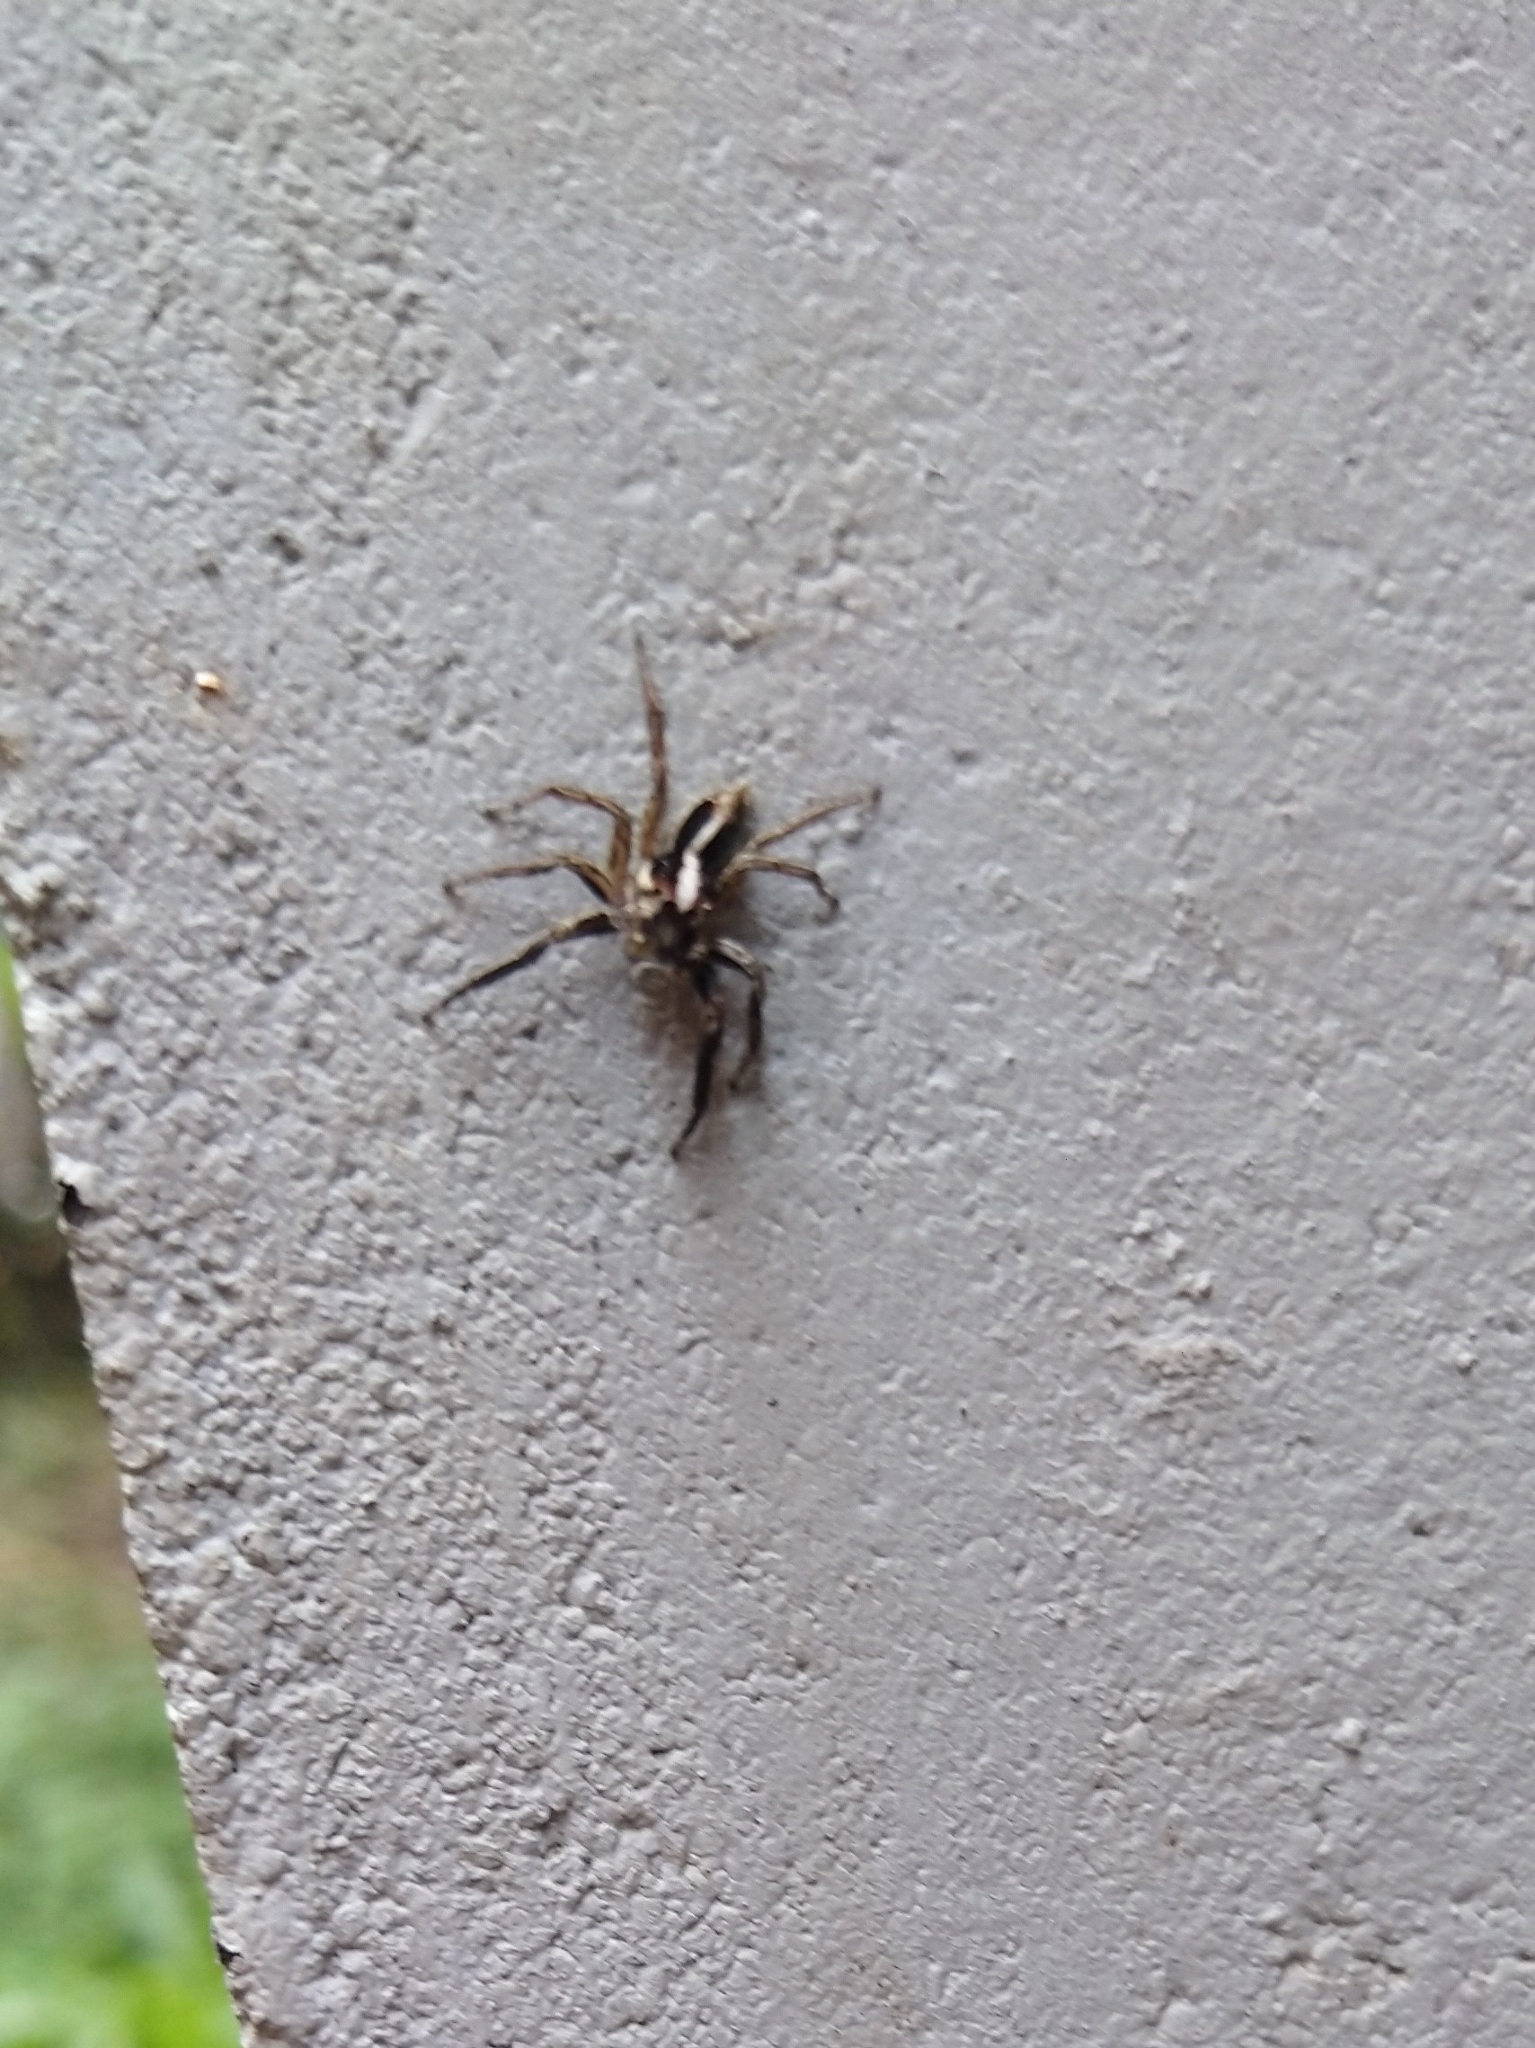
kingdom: Animalia
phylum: Arthropoda
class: Arachnida
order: Araneae
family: Salticidae
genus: Plexippus
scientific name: Plexippus paykulli
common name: Pantropical jumper
